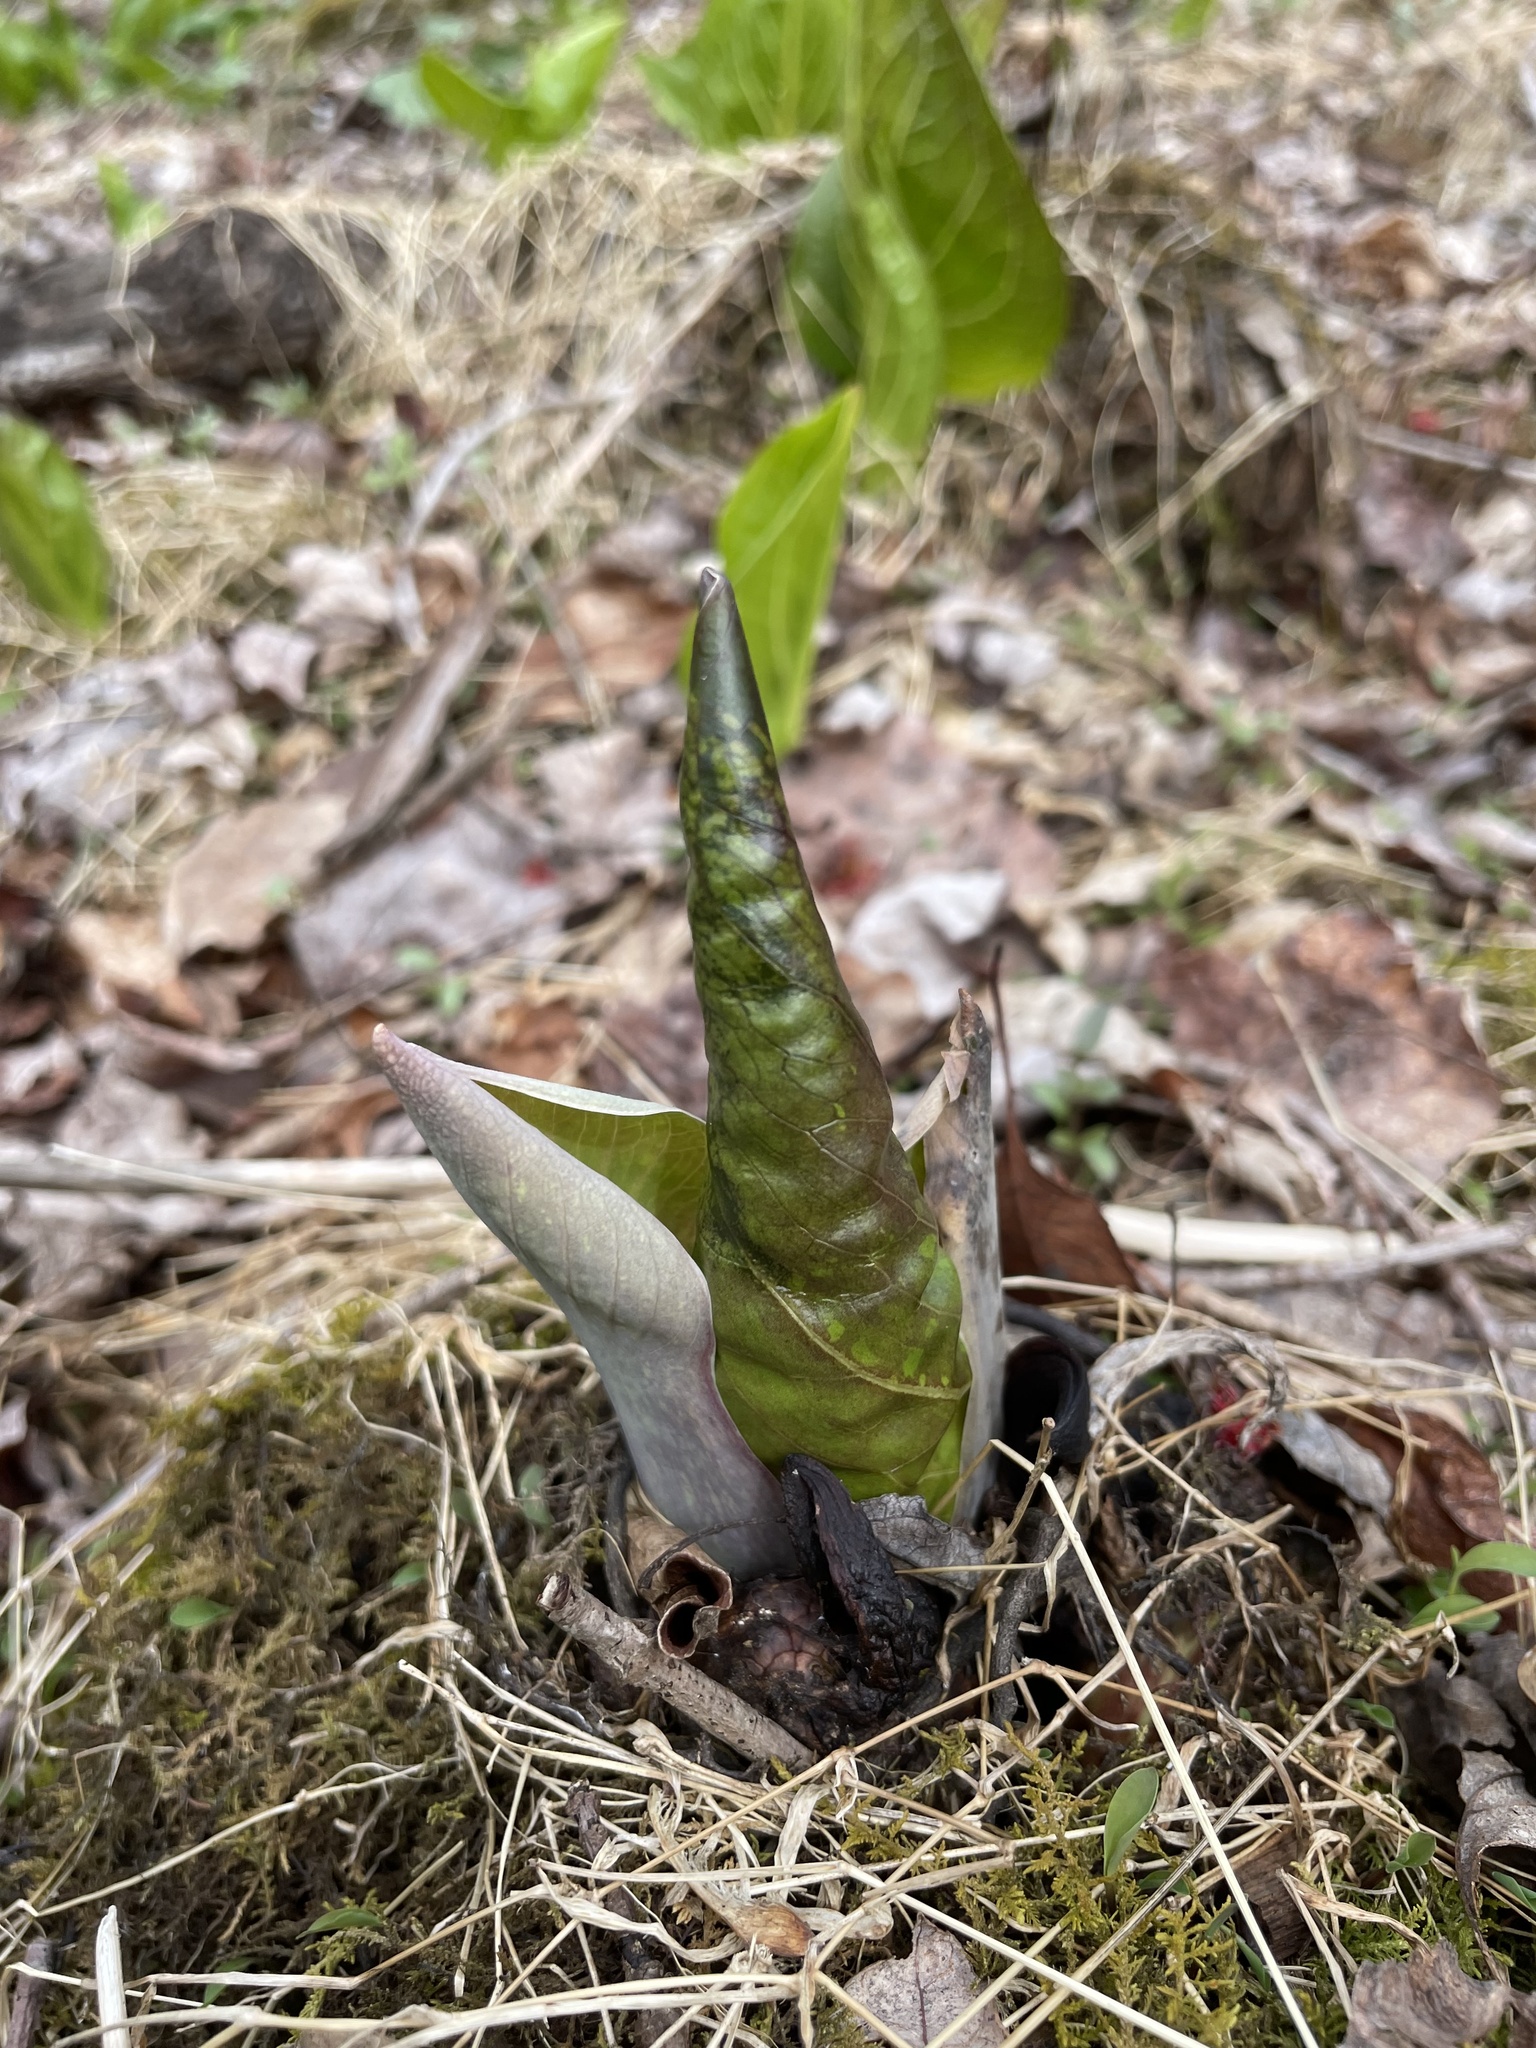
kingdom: Plantae
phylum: Tracheophyta
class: Liliopsida
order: Alismatales
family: Araceae
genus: Symplocarpus
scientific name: Symplocarpus foetidus
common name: Eastern skunk cabbage
